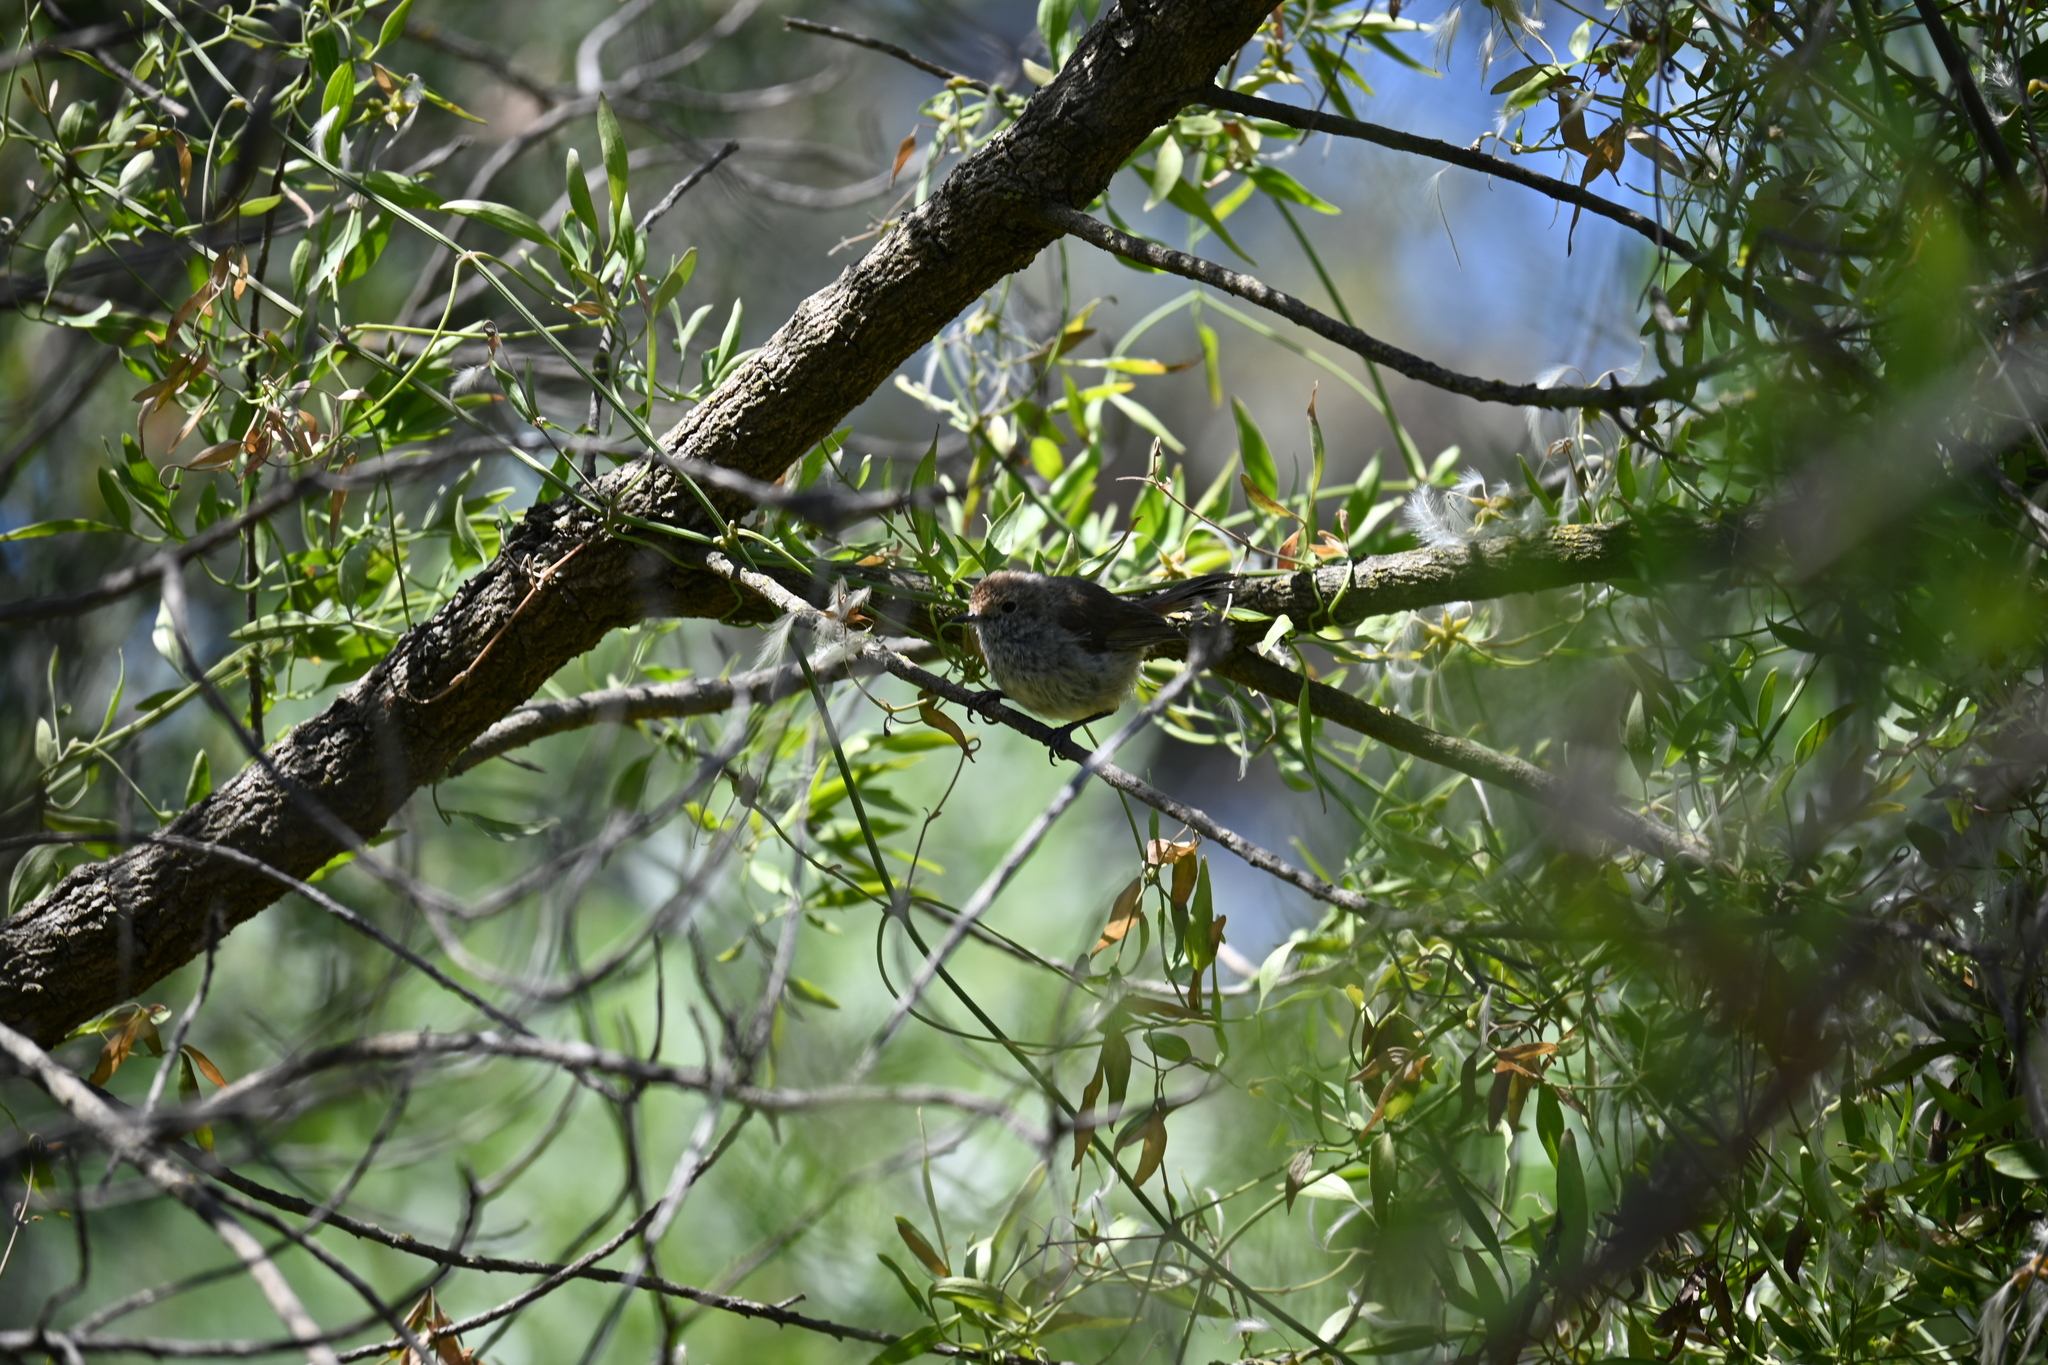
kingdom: Animalia
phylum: Chordata
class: Aves
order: Passeriformes
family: Acanthizidae
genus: Acanthiza
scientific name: Acanthiza pusilla
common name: Brown thornbill
